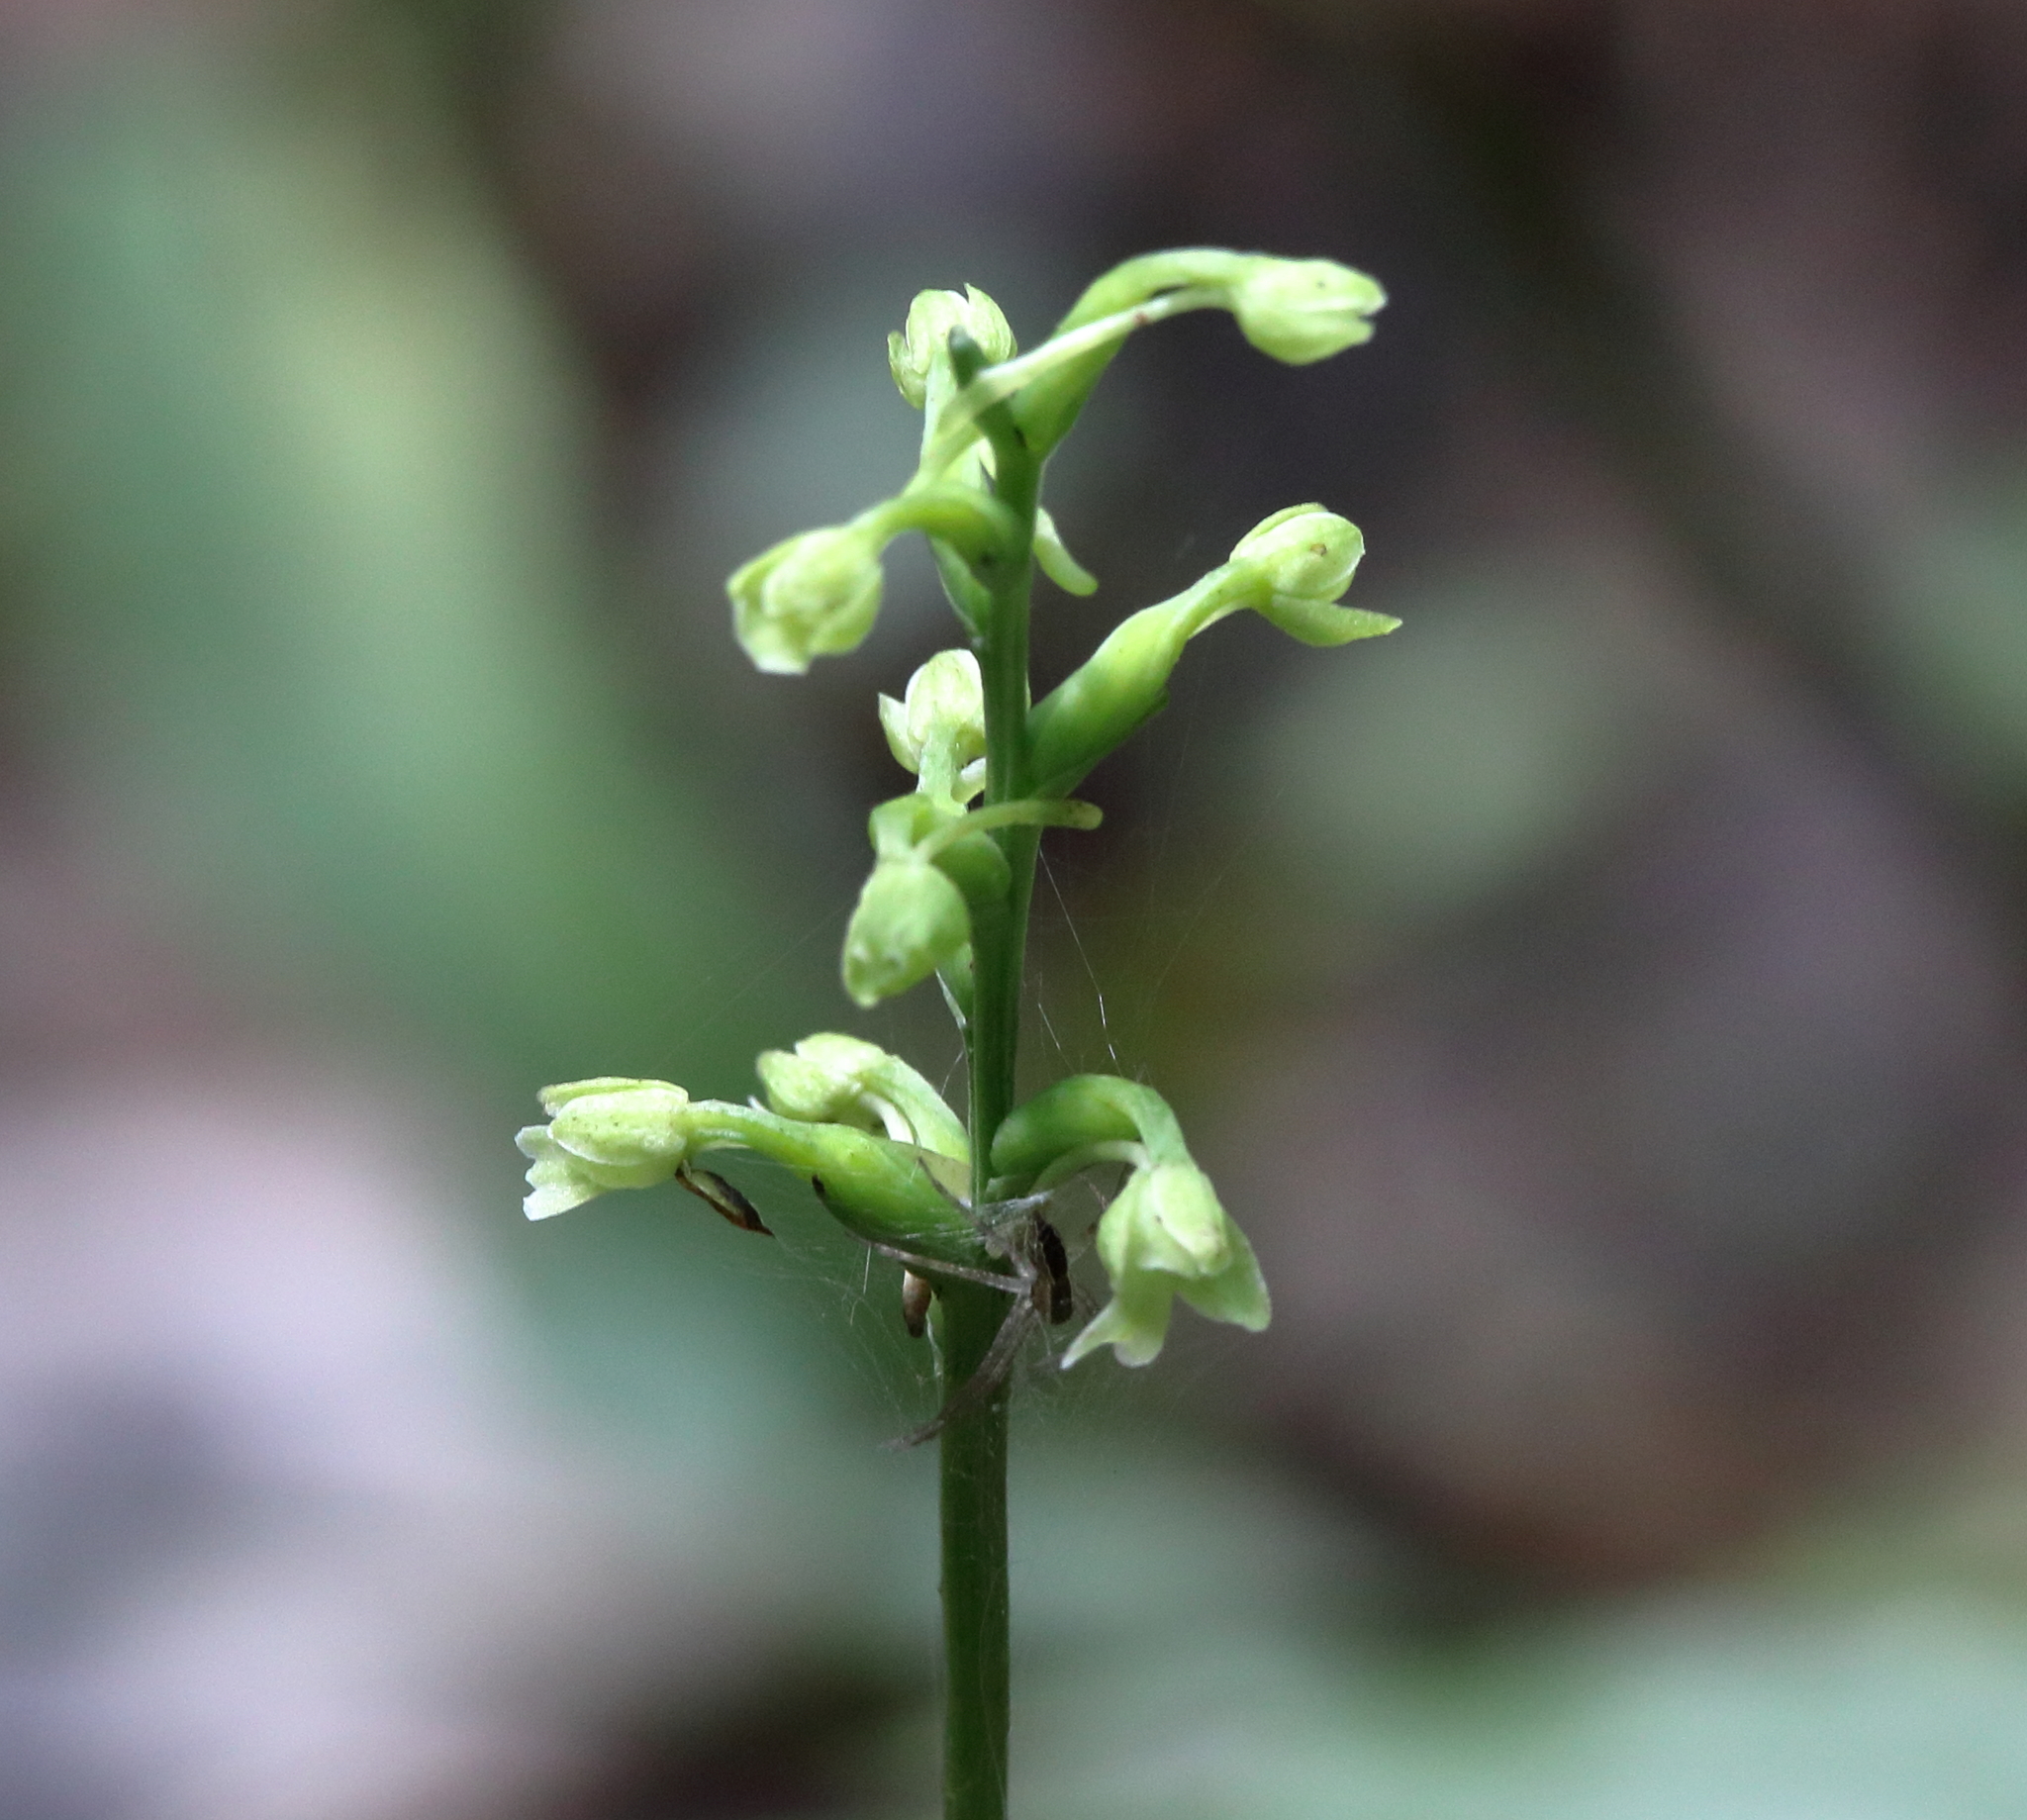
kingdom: Plantae
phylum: Tracheophyta
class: Liliopsida
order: Asparagales
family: Orchidaceae
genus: Platanthera
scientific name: Platanthera clavellata
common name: Club-spur orchid
